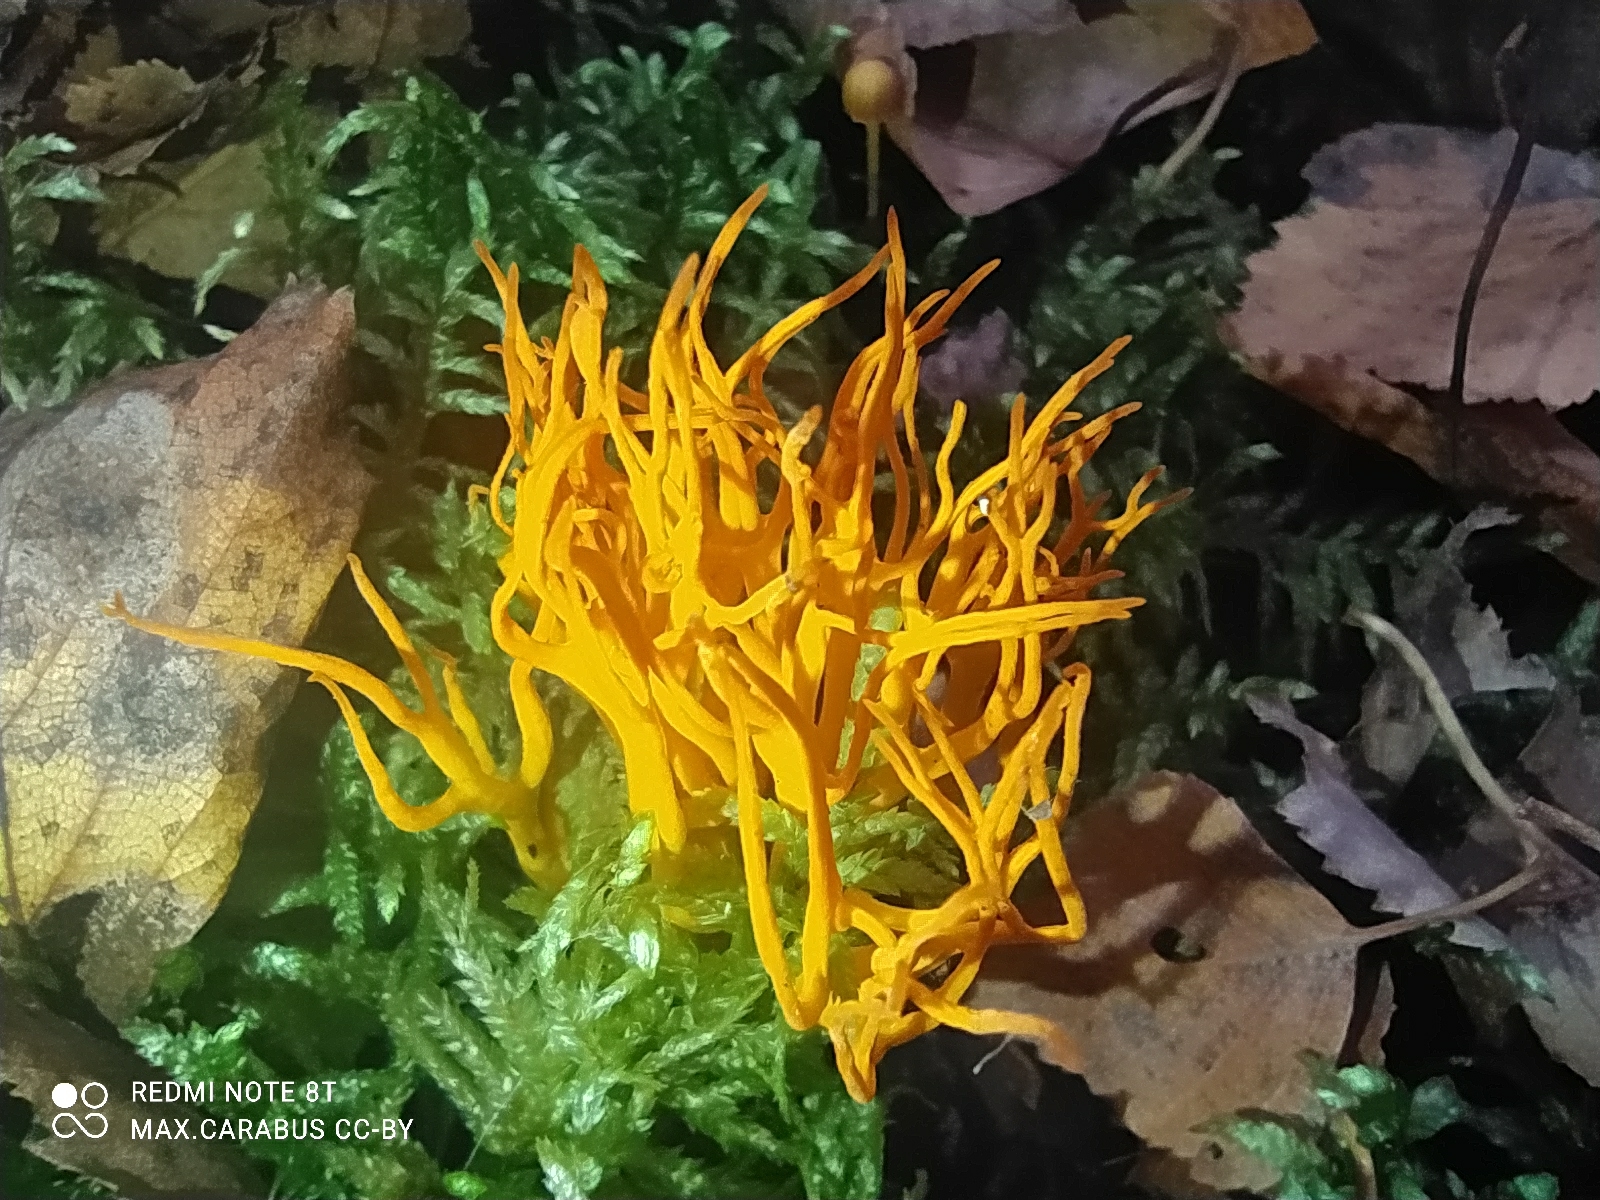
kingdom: Fungi
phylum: Basidiomycota
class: Dacrymycetes
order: Dacrymycetales
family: Dacrymycetaceae
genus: Calocera
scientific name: Calocera viscosa
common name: Yellow stagshorn
